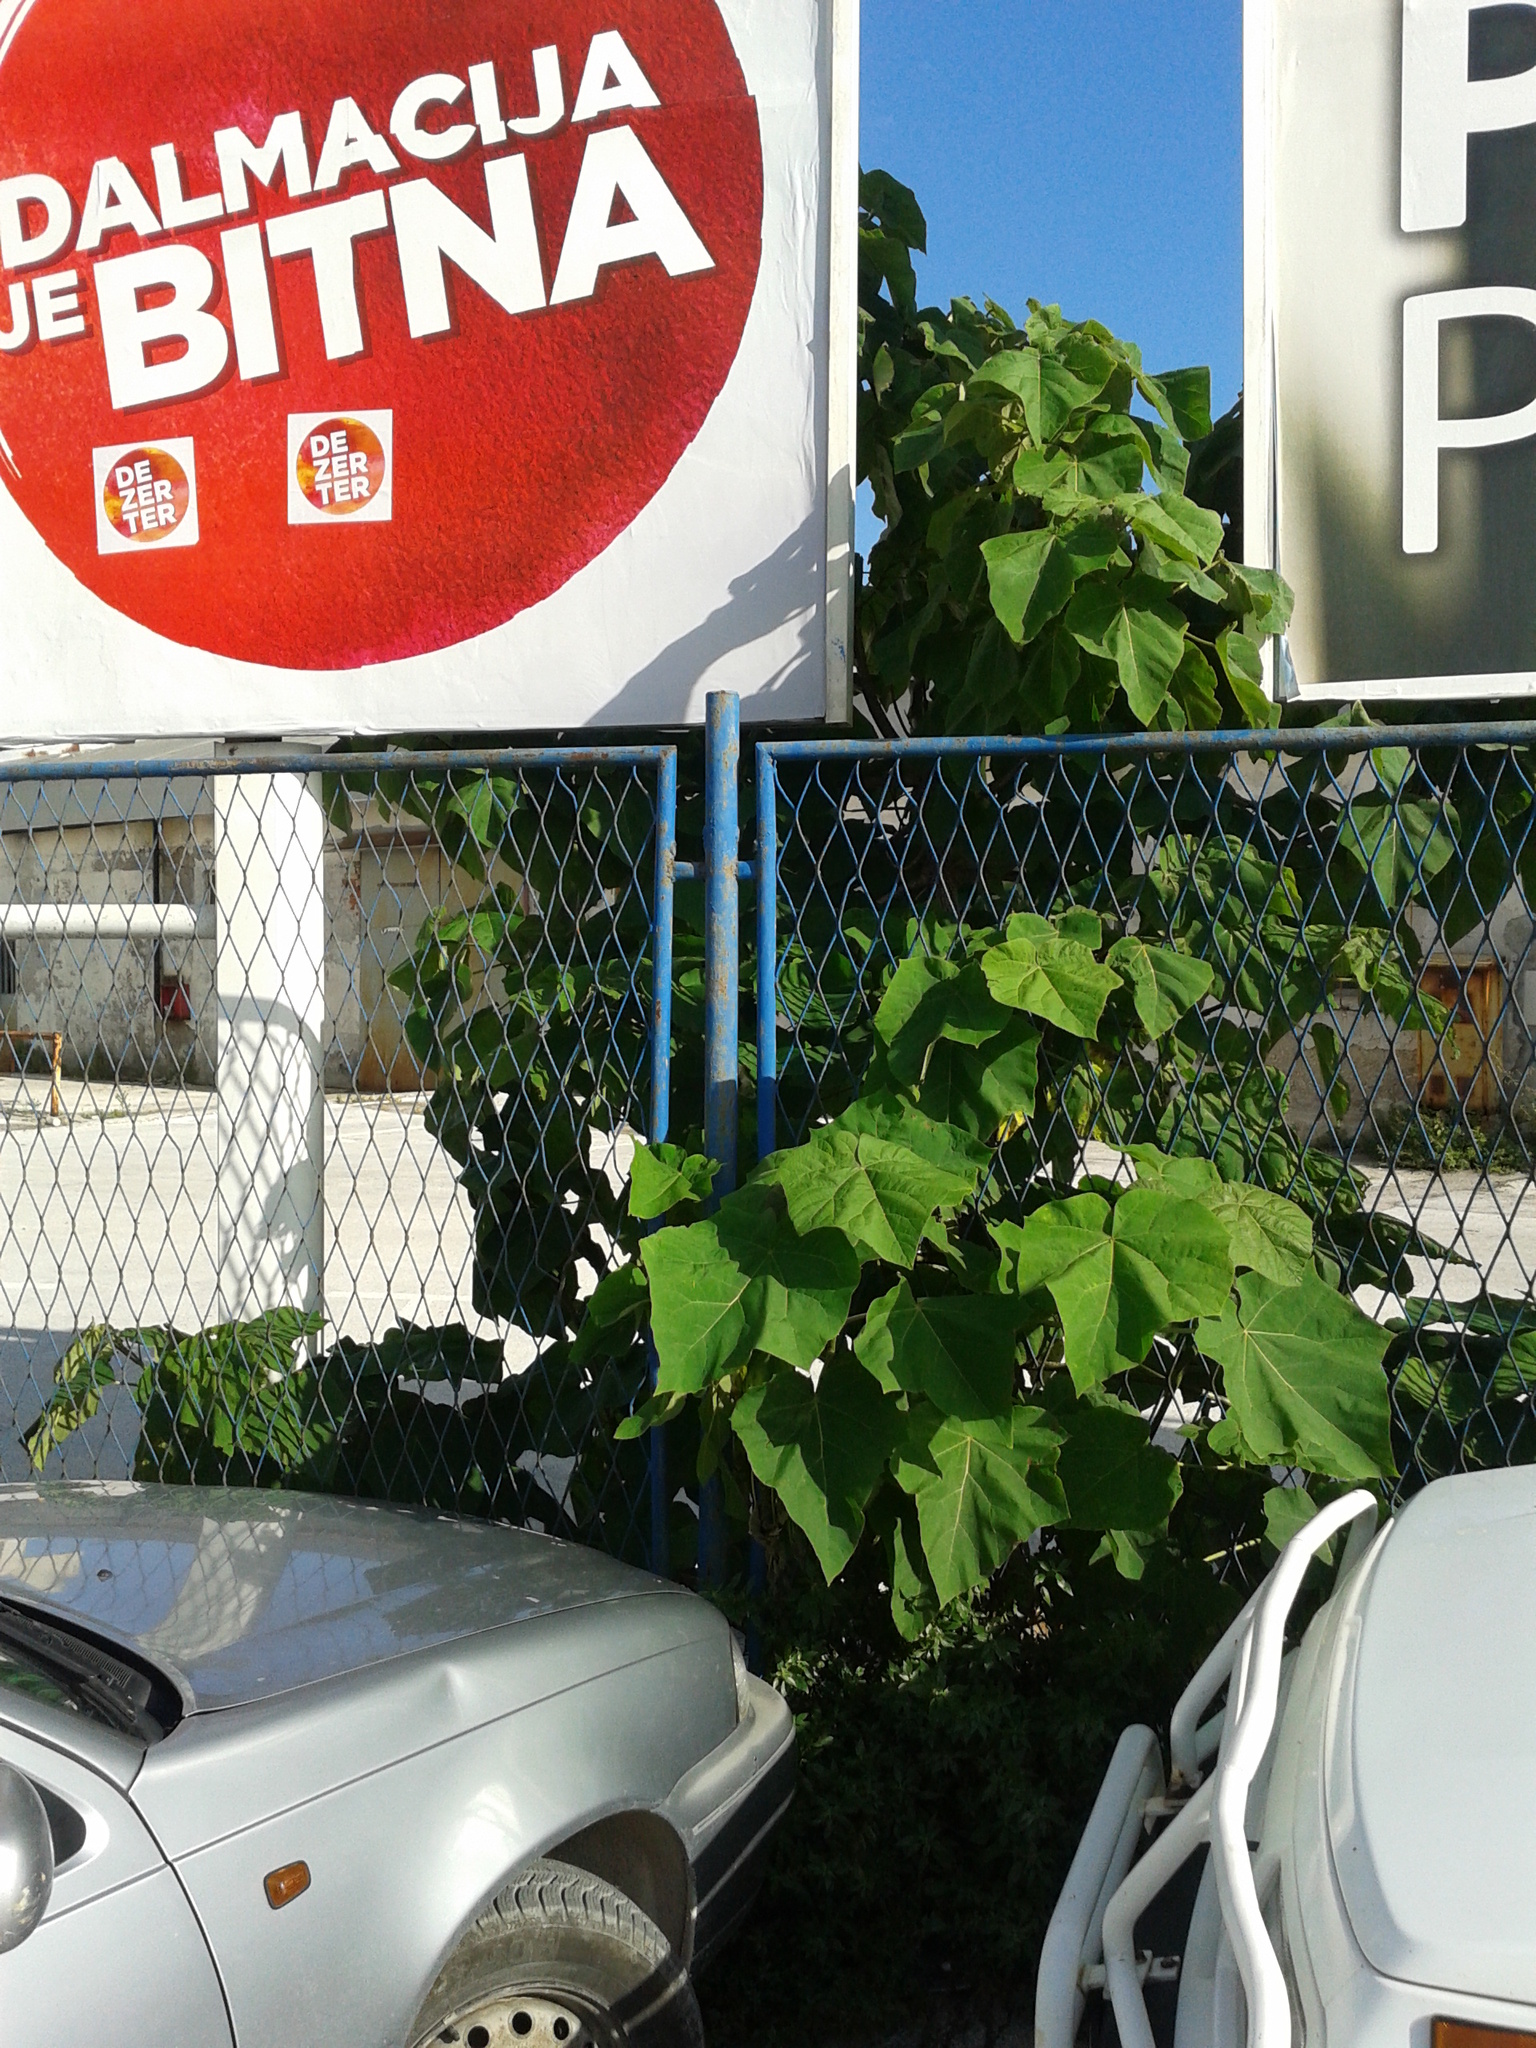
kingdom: Plantae
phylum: Tracheophyta
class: Magnoliopsida
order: Lamiales
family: Paulowniaceae
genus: Paulownia
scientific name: Paulownia tomentosa
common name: Foxglove-tree
